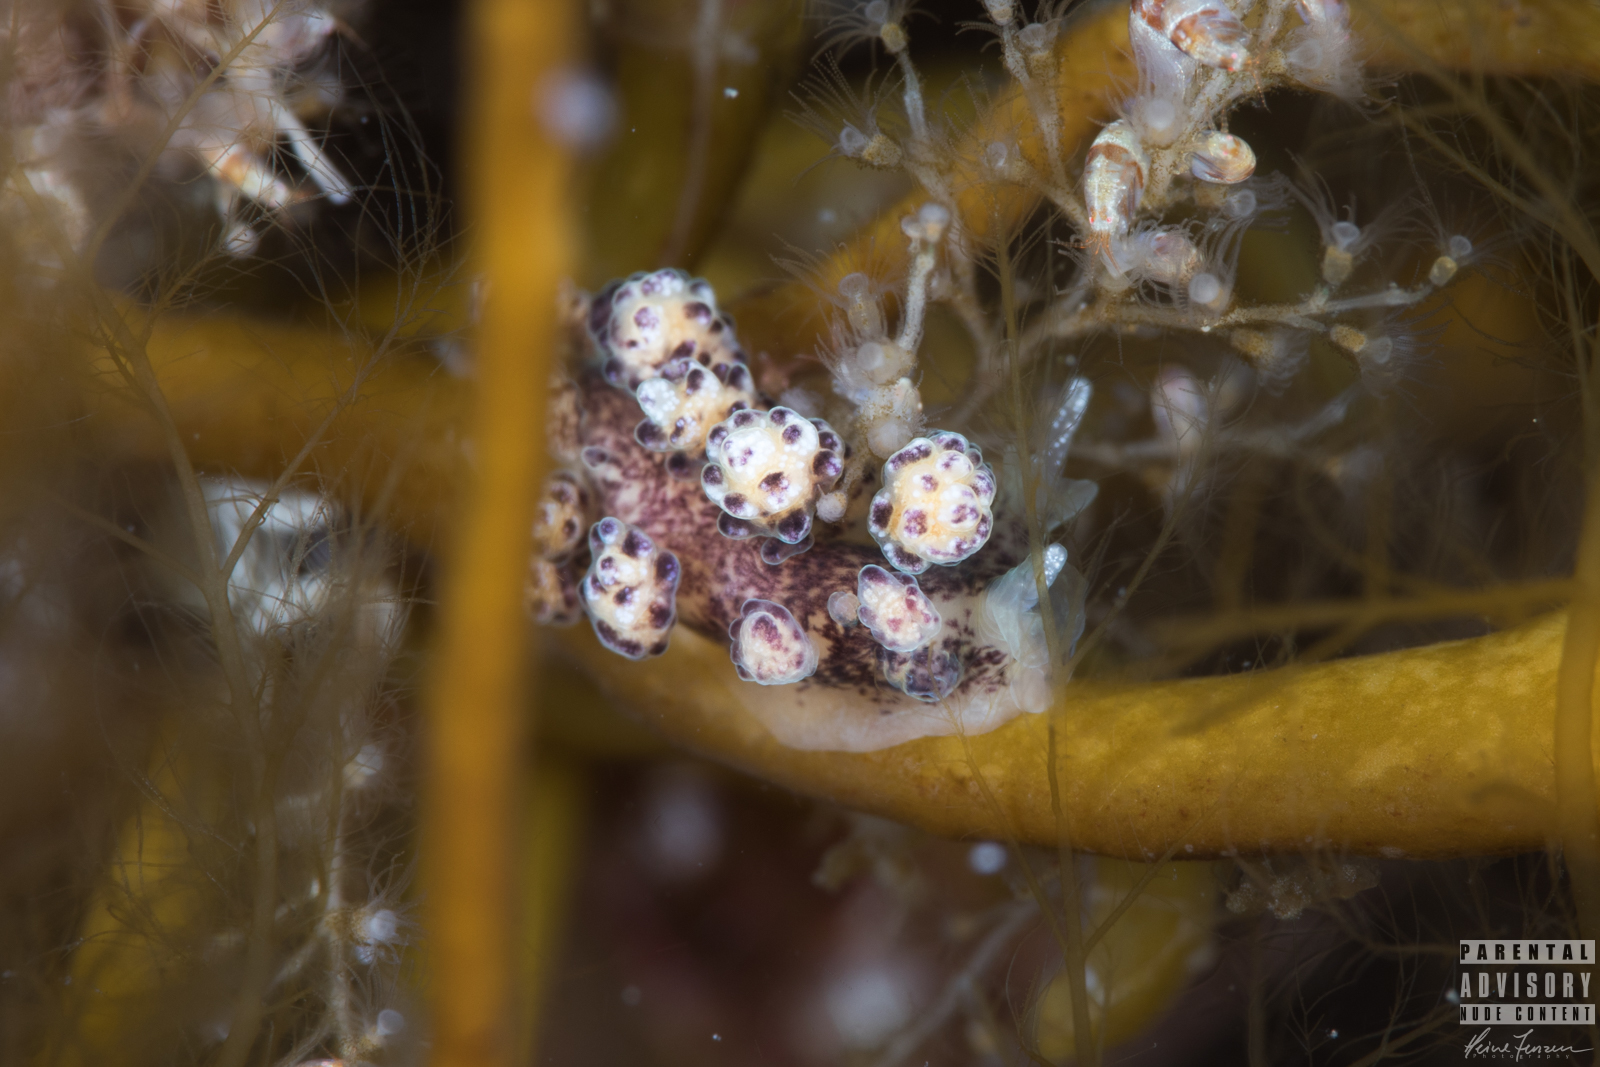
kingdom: Animalia
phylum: Mollusca
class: Gastropoda
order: Nudibranchia
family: Dotidae
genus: Doto
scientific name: Doto coronata
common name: Coronate doto
